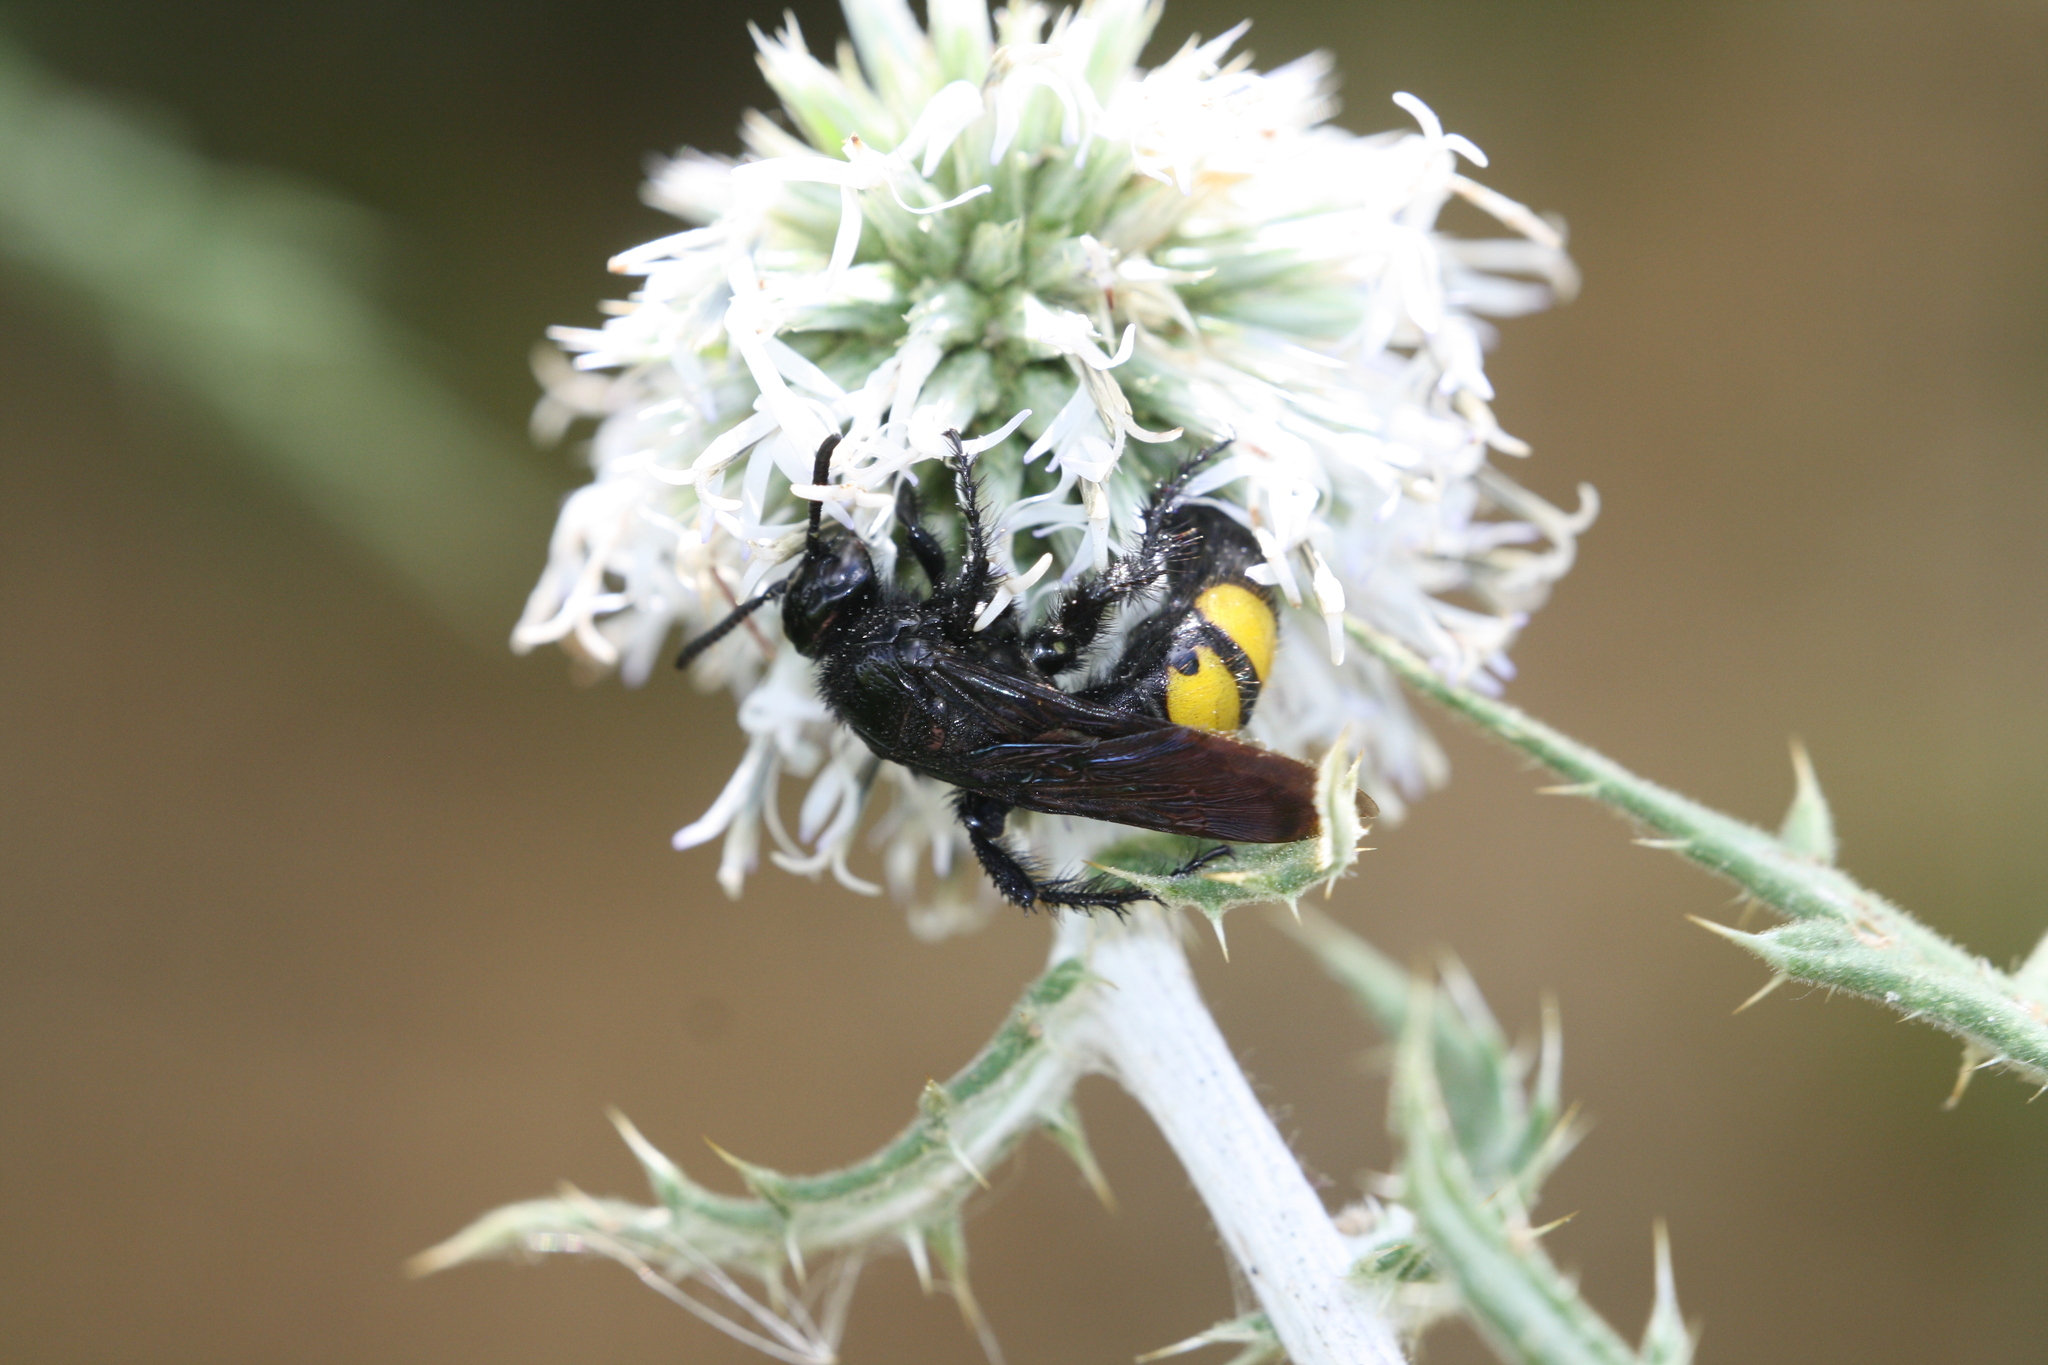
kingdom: Animalia
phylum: Arthropoda
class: Insecta
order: Hymenoptera
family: Scoliidae
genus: Scolia
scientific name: Scolia hirta
